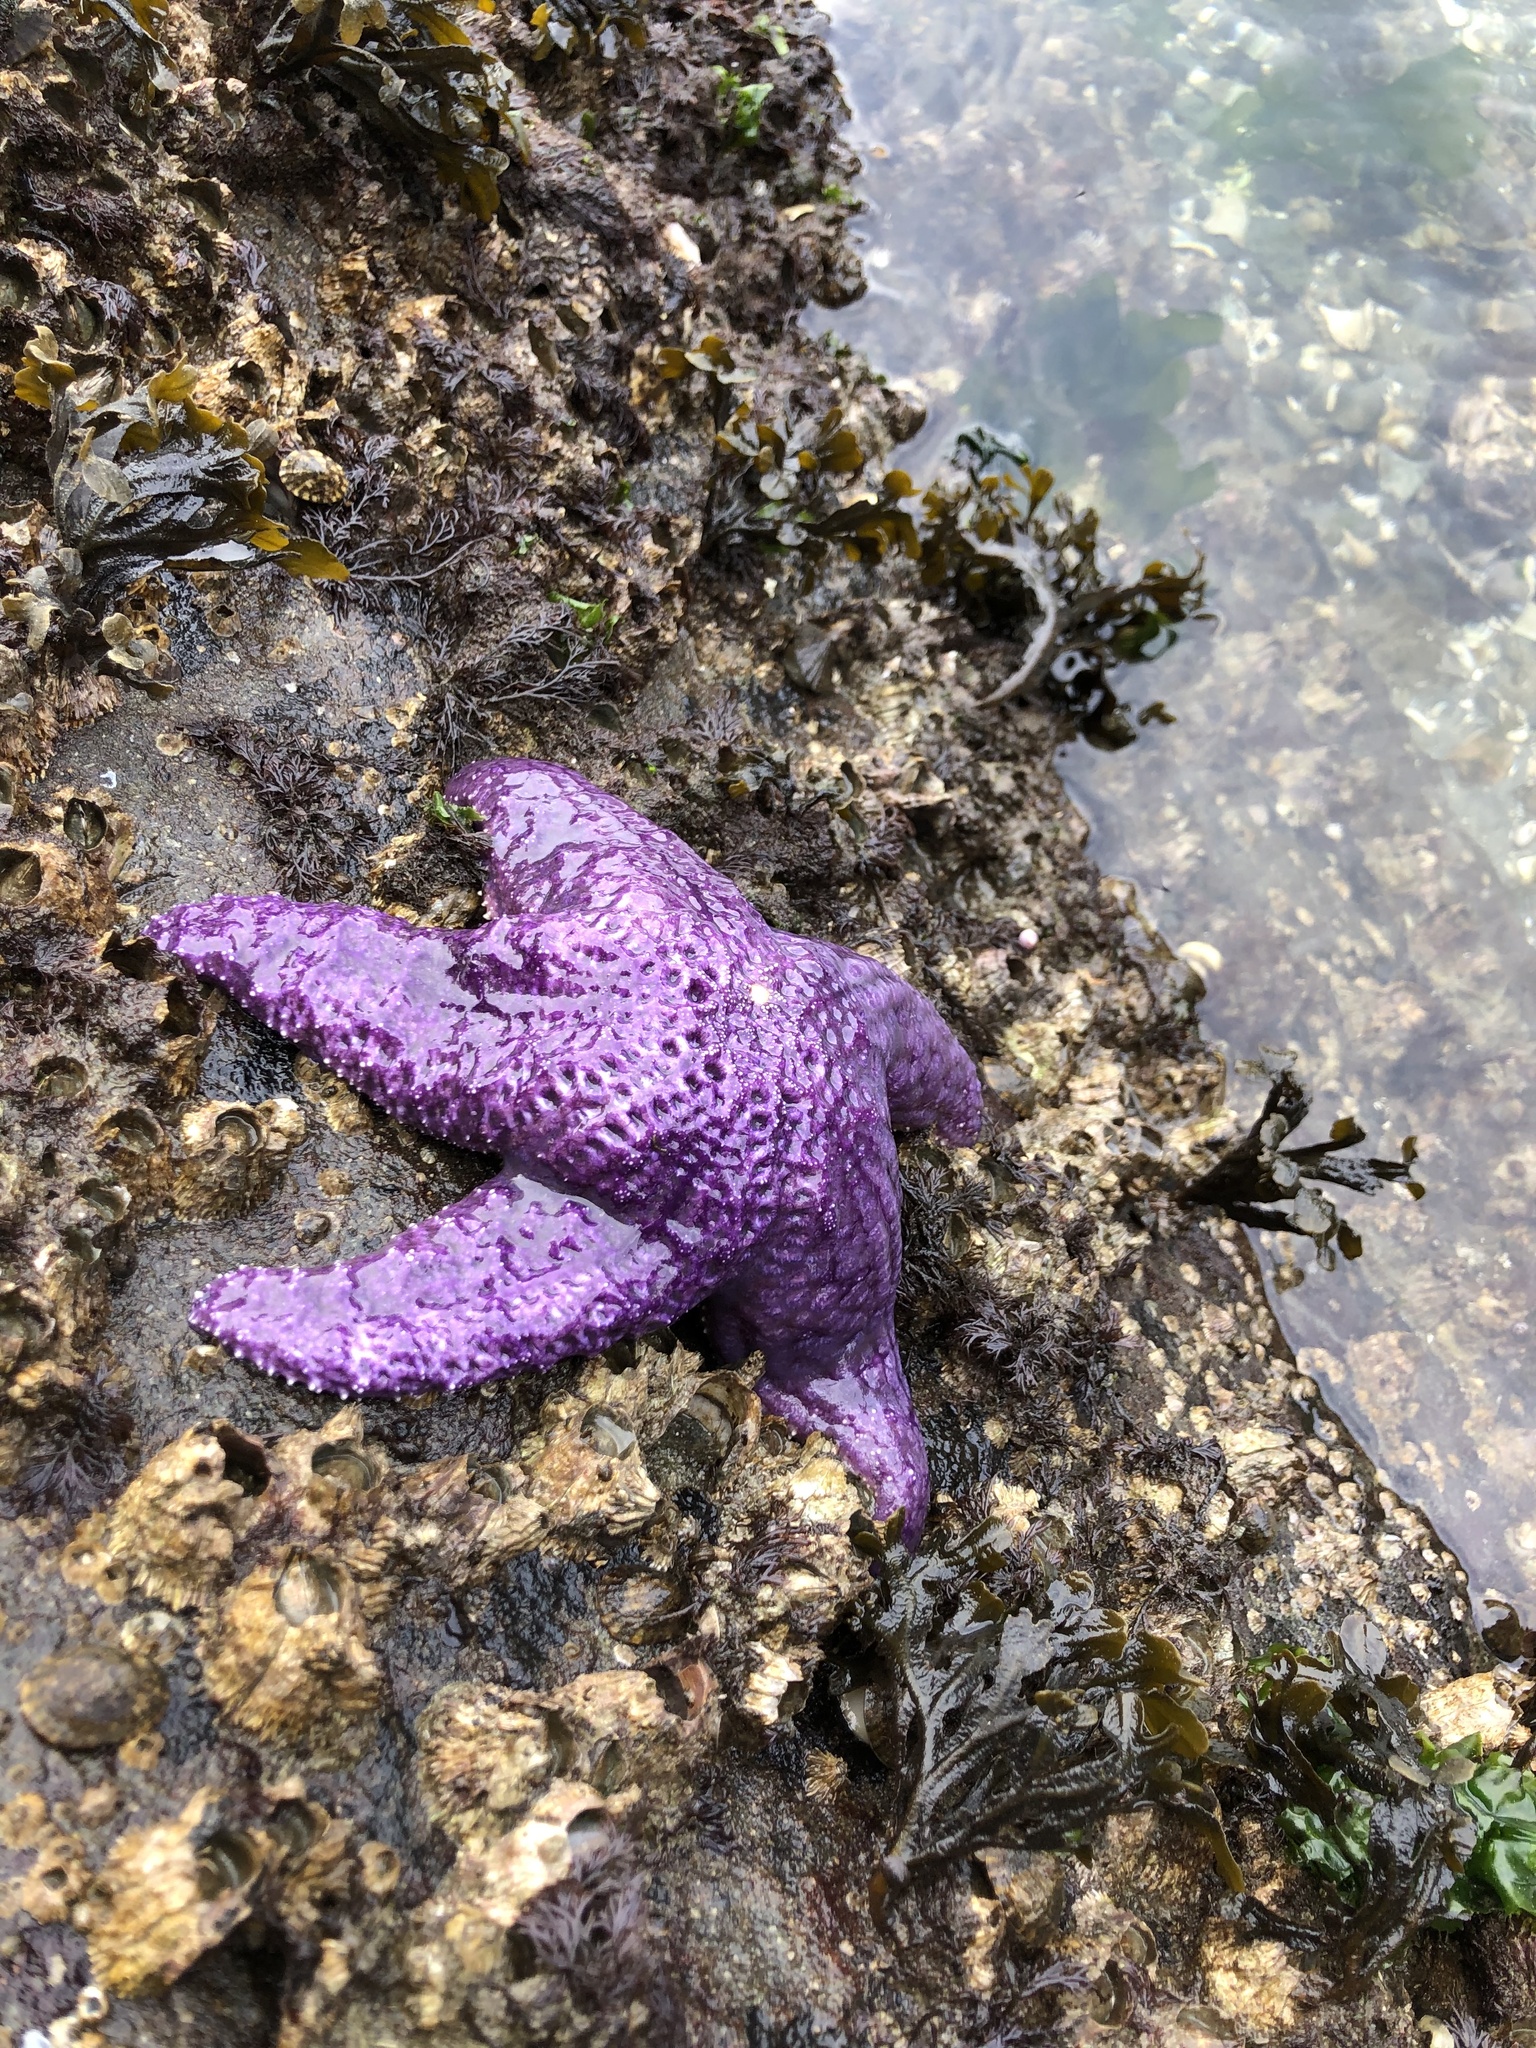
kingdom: Animalia
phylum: Echinodermata
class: Asteroidea
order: Forcipulatida
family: Asteriidae
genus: Pisaster
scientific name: Pisaster ochraceus
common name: Ochre stars
